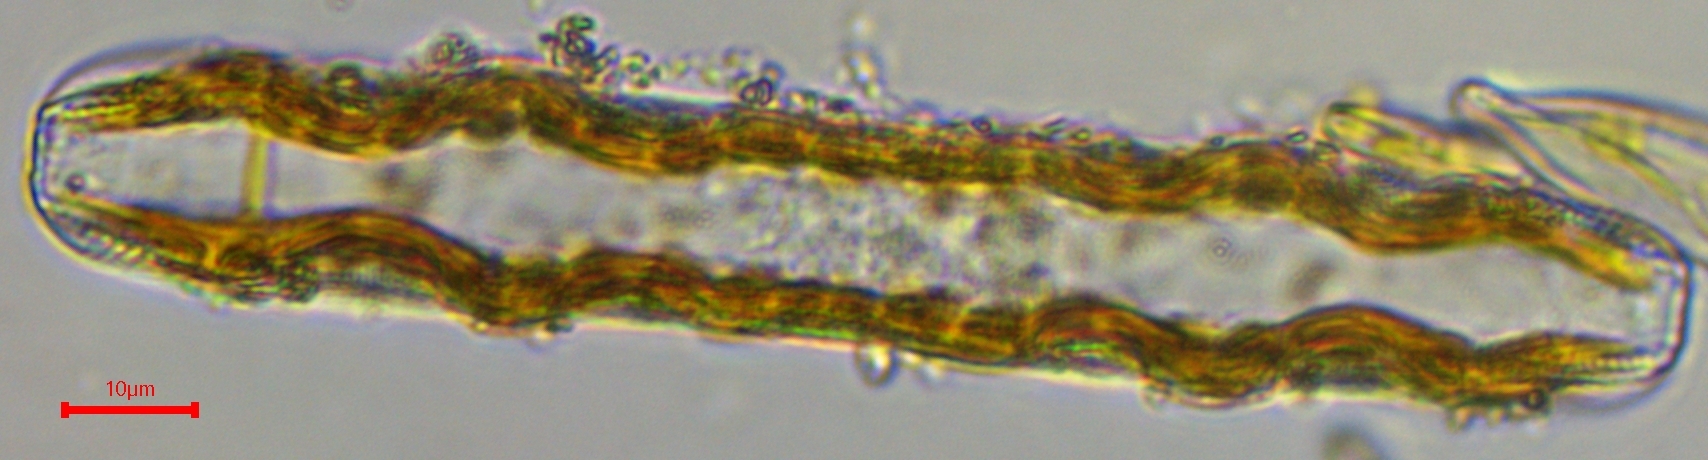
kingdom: Chromista
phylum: Ochrophyta
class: Bacillariophyceae
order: Surirellales
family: Surirellaceae
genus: Surirella
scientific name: Surirella librile
